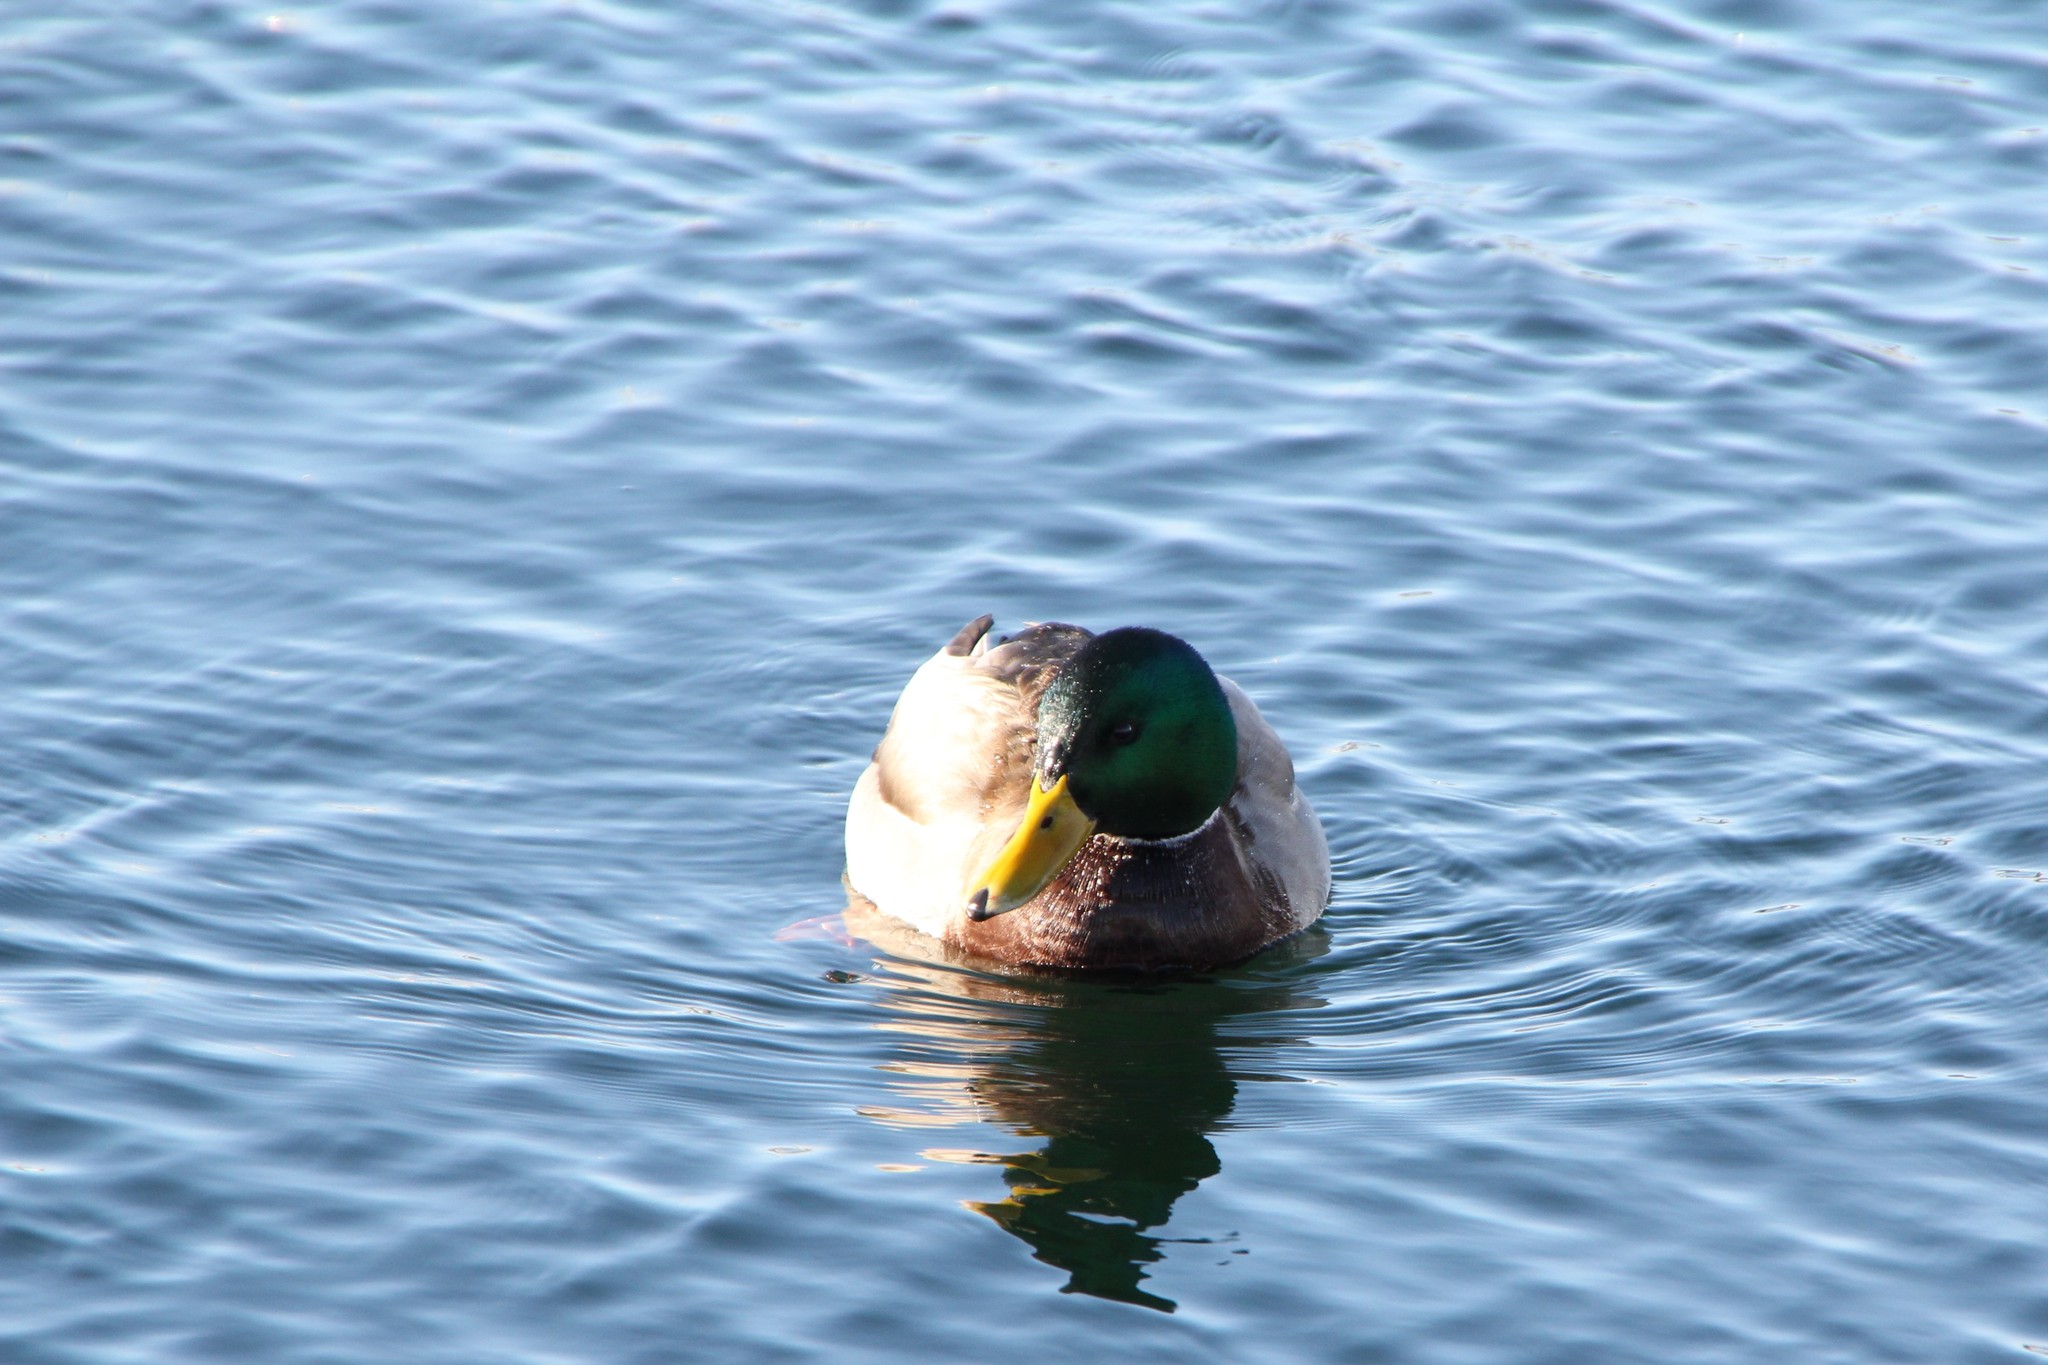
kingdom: Animalia
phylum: Chordata
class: Aves
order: Anseriformes
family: Anatidae
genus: Anas
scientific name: Anas platyrhynchos
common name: Mallard
